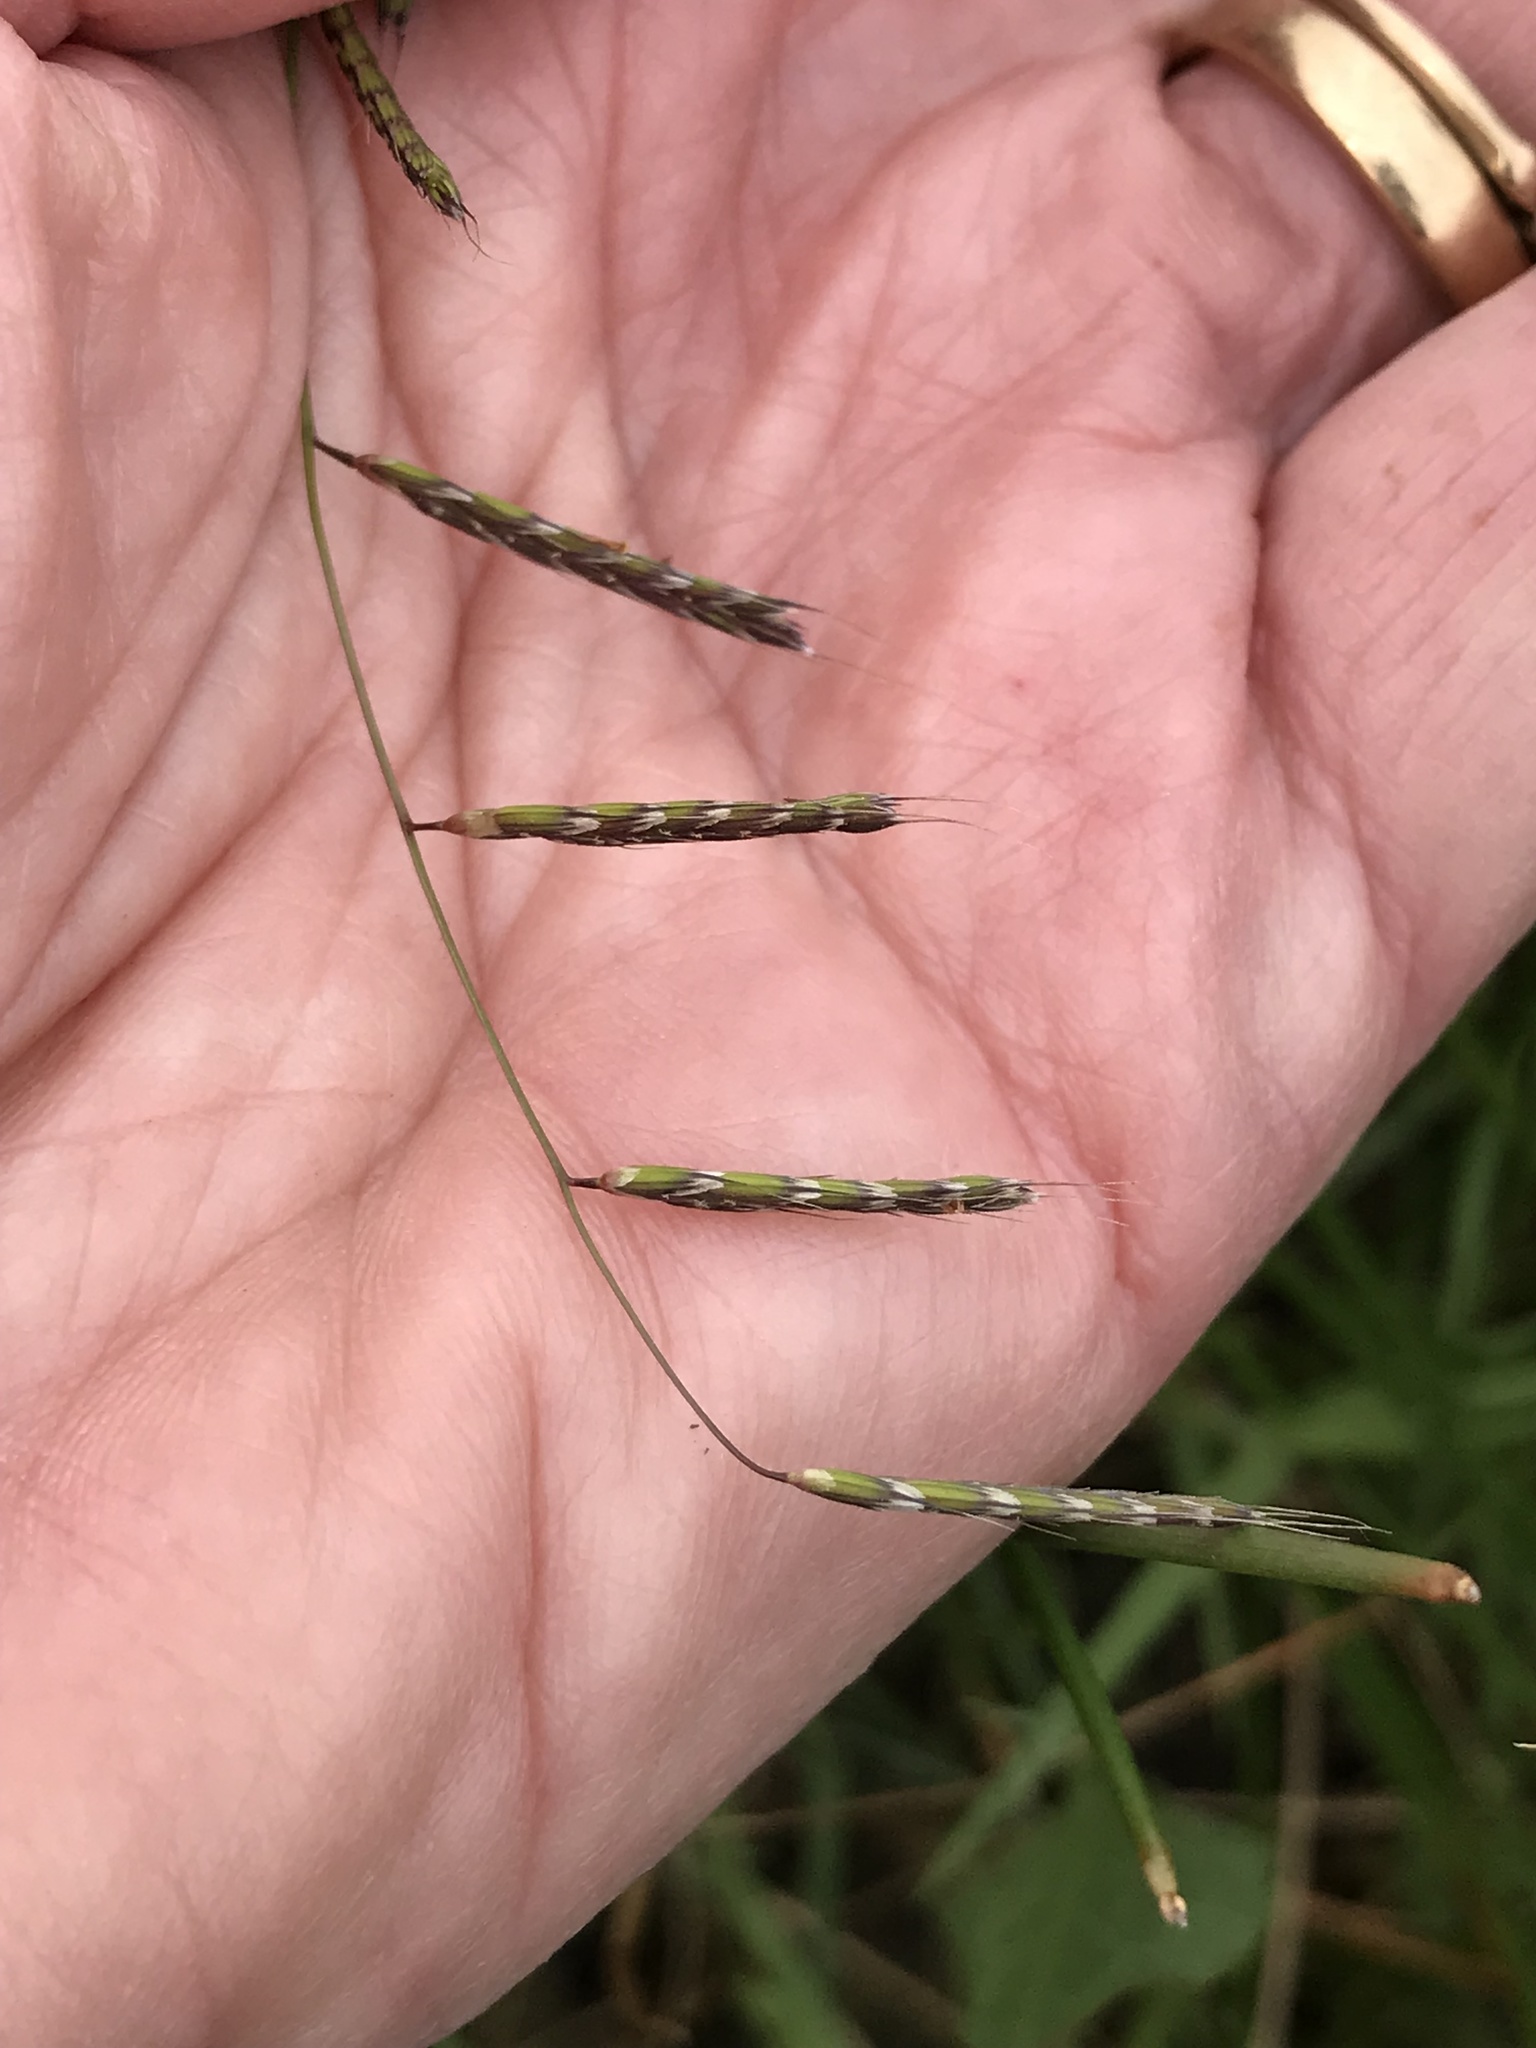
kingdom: Plantae
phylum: Tracheophyta
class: Liliopsida
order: Poales
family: Poaceae
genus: Pleuropogon
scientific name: Pleuropogon californicus
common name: California semaphore grass
